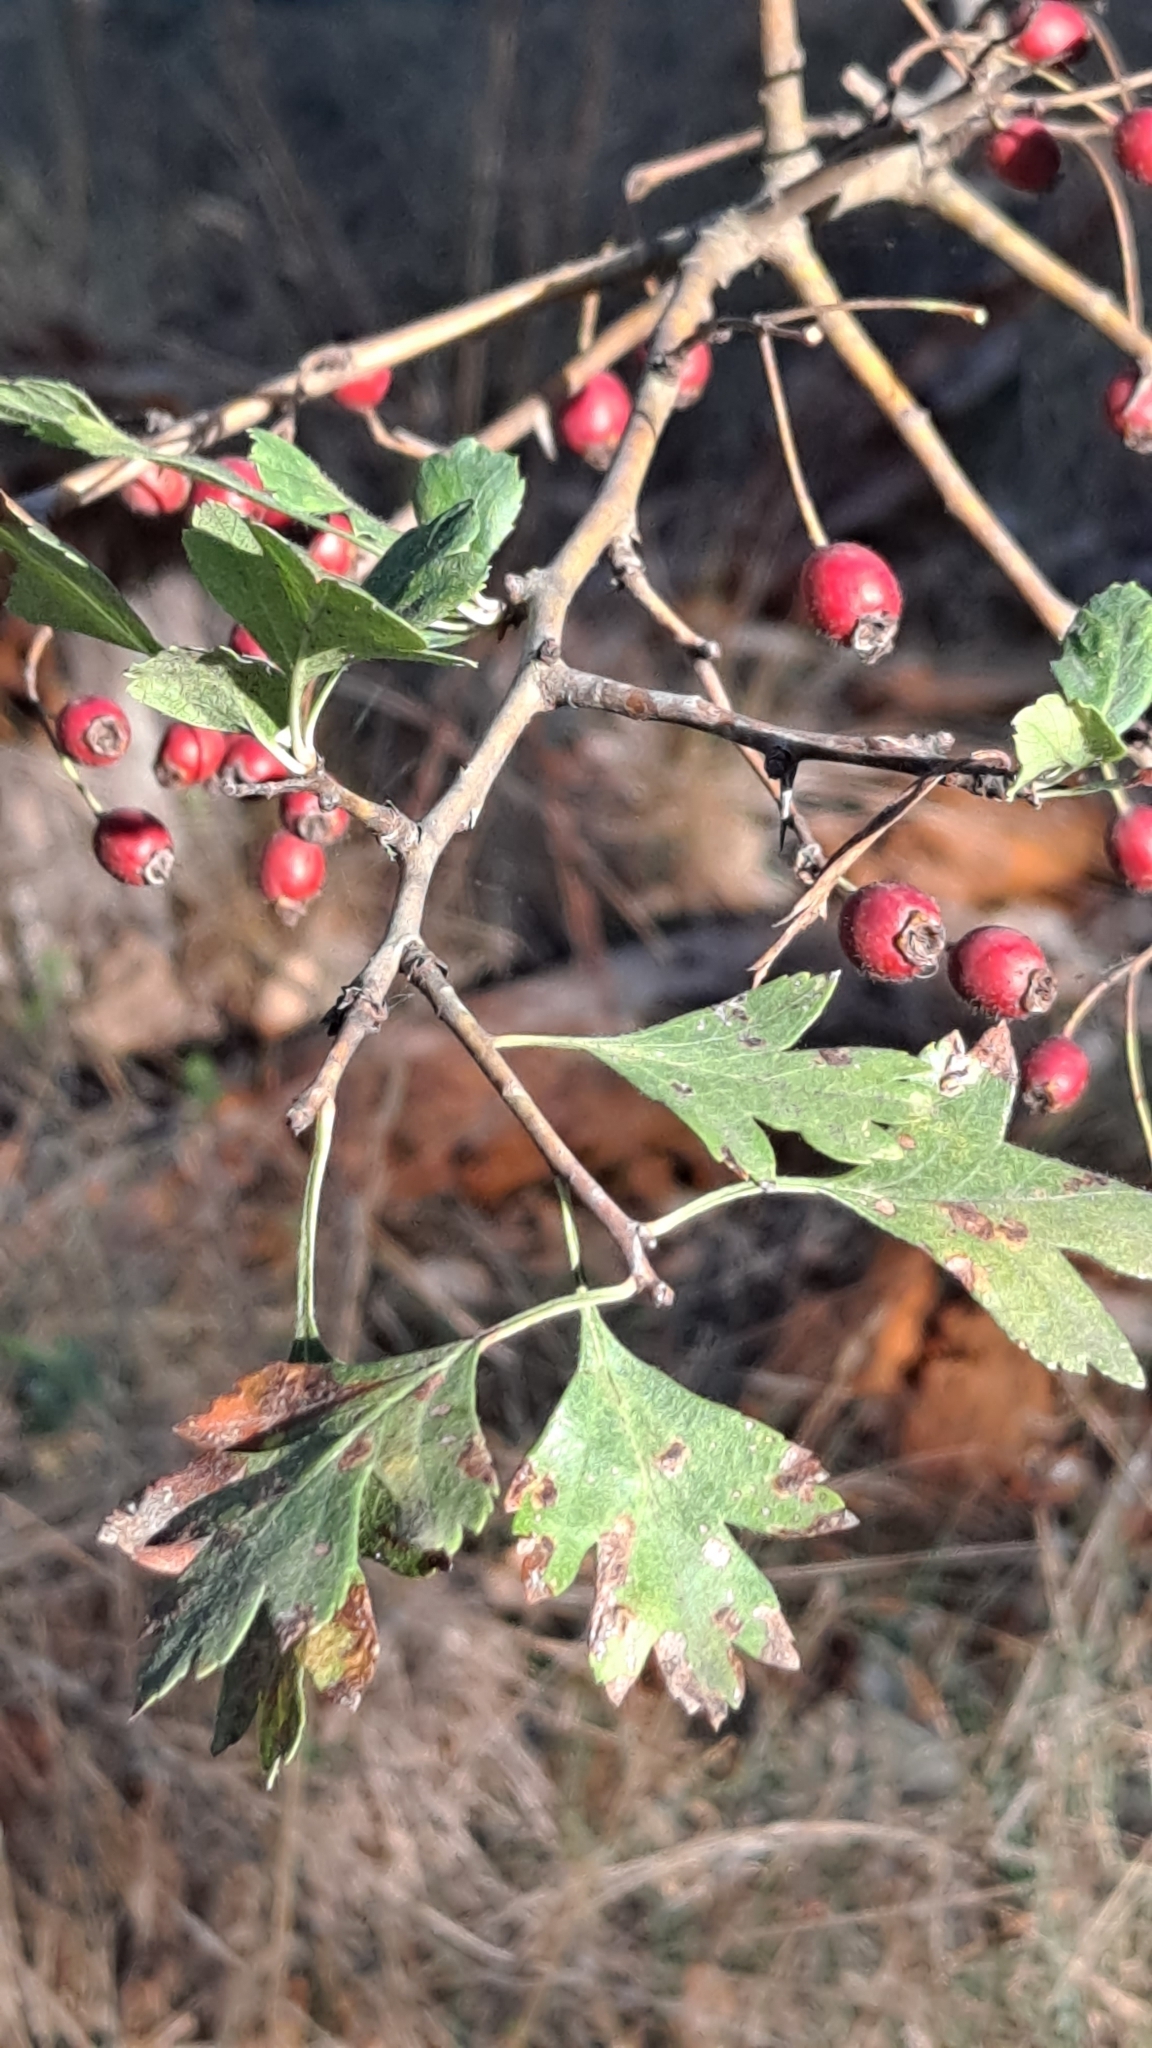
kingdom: Plantae
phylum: Tracheophyta
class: Magnoliopsida
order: Rosales
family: Rosaceae
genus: Crataegus
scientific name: Crataegus monogyna
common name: Hawthorn
